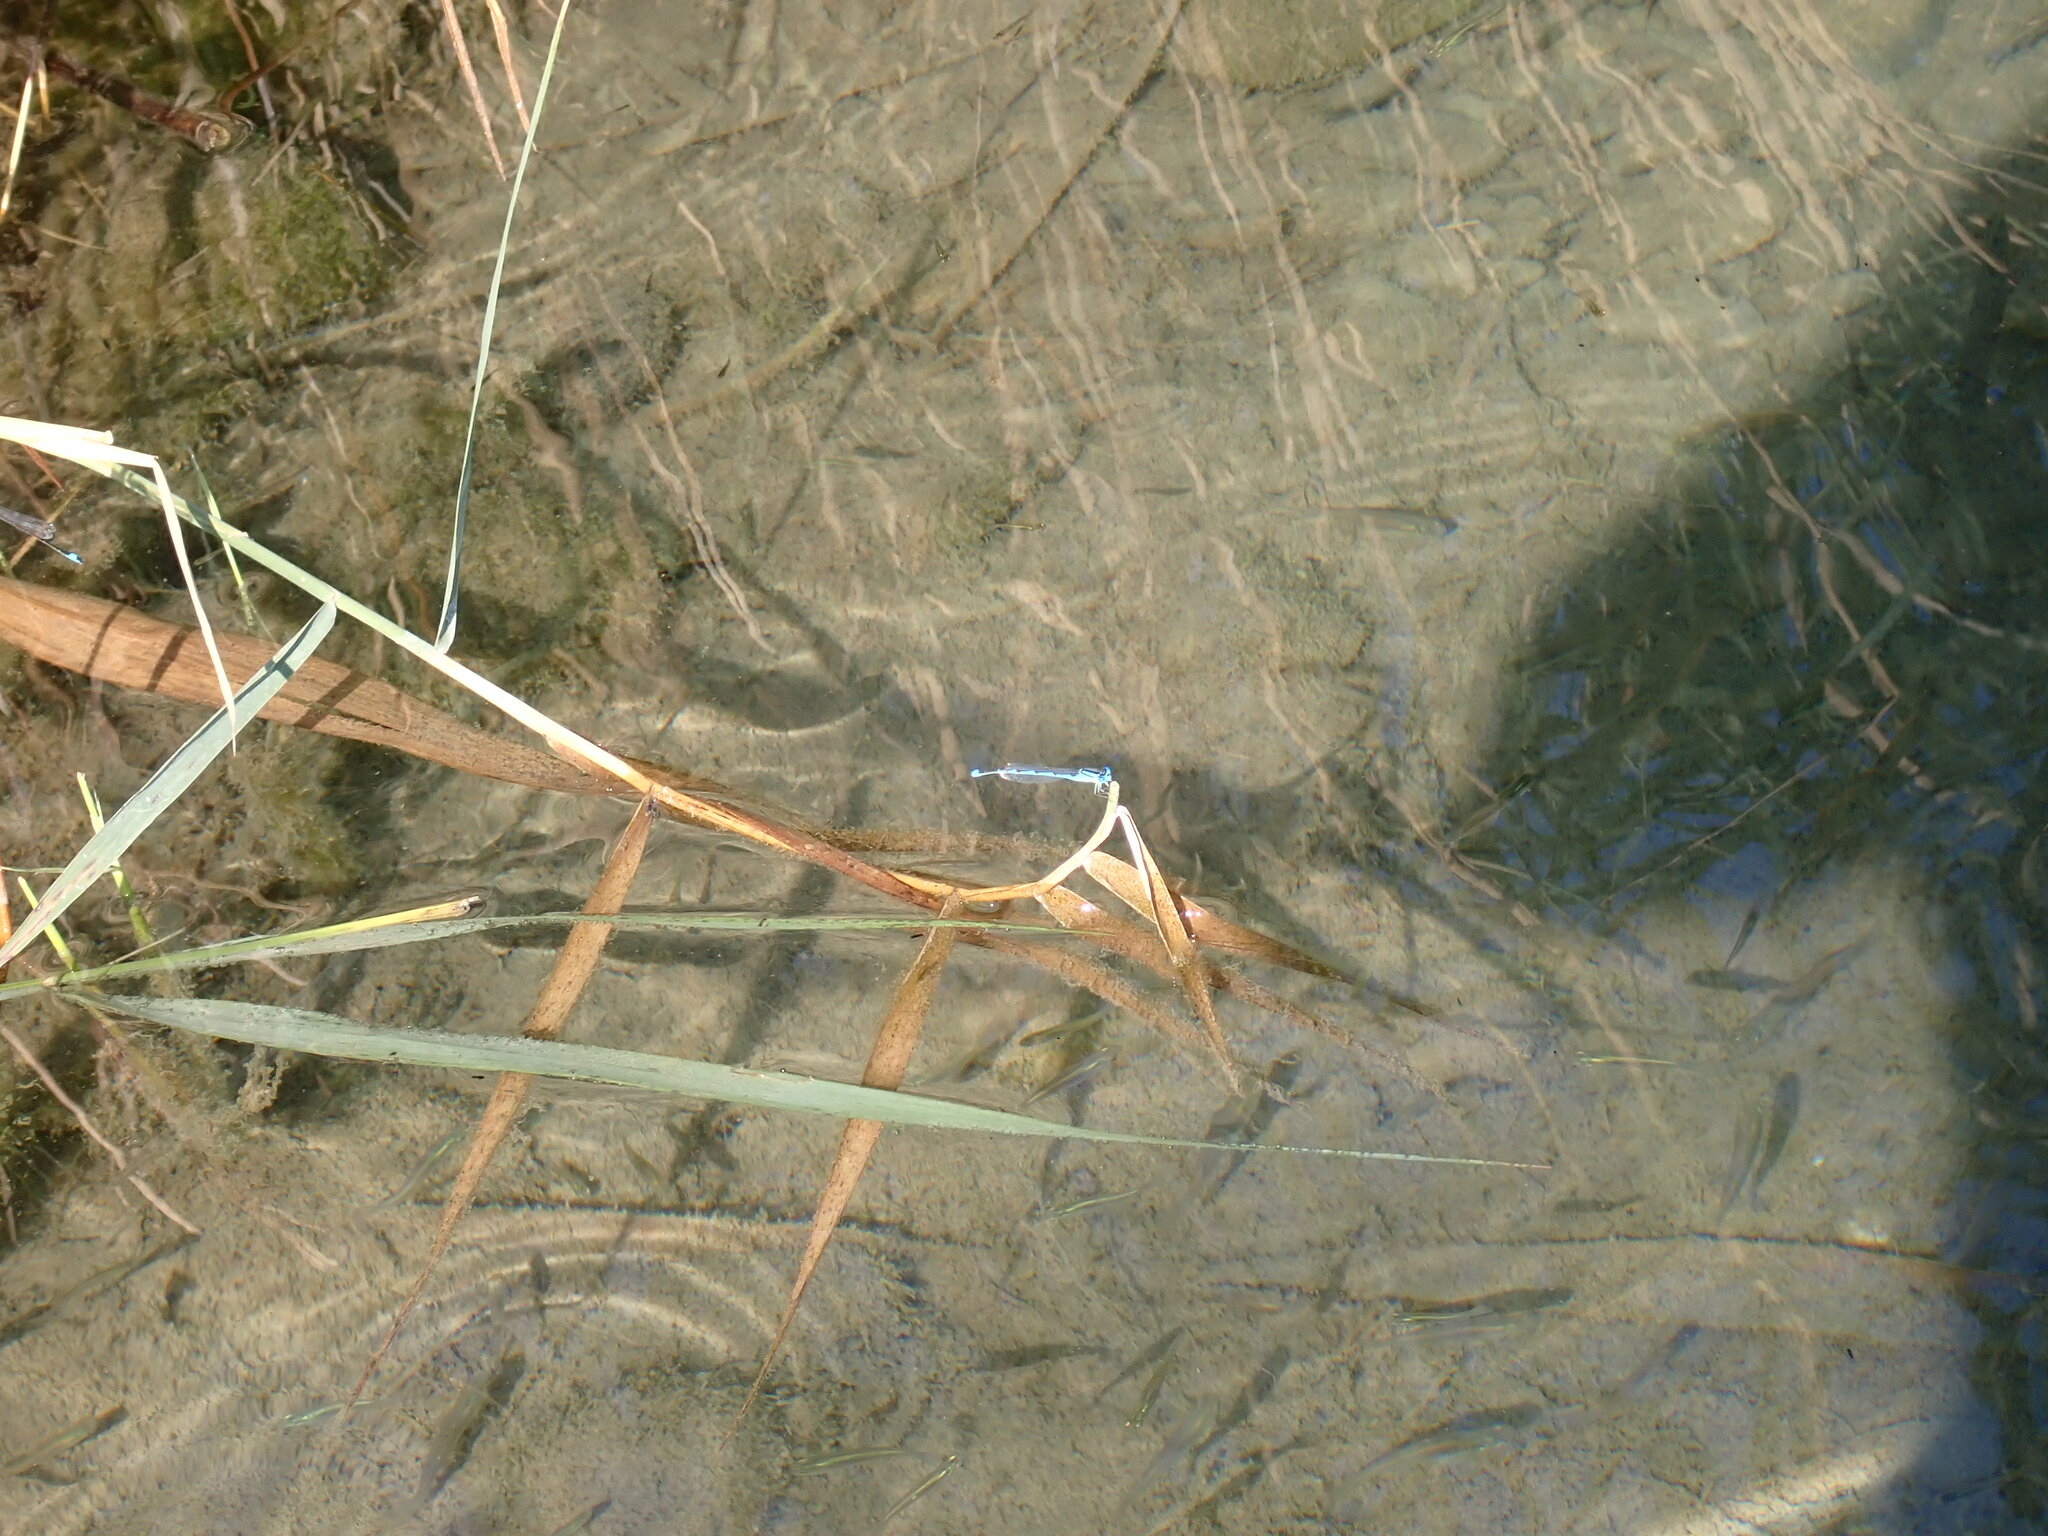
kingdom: Animalia
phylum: Arthropoda
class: Insecta
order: Odonata
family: Coenagrionidae
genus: Erythromma
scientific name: Erythromma lindenii
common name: Blue-eye
